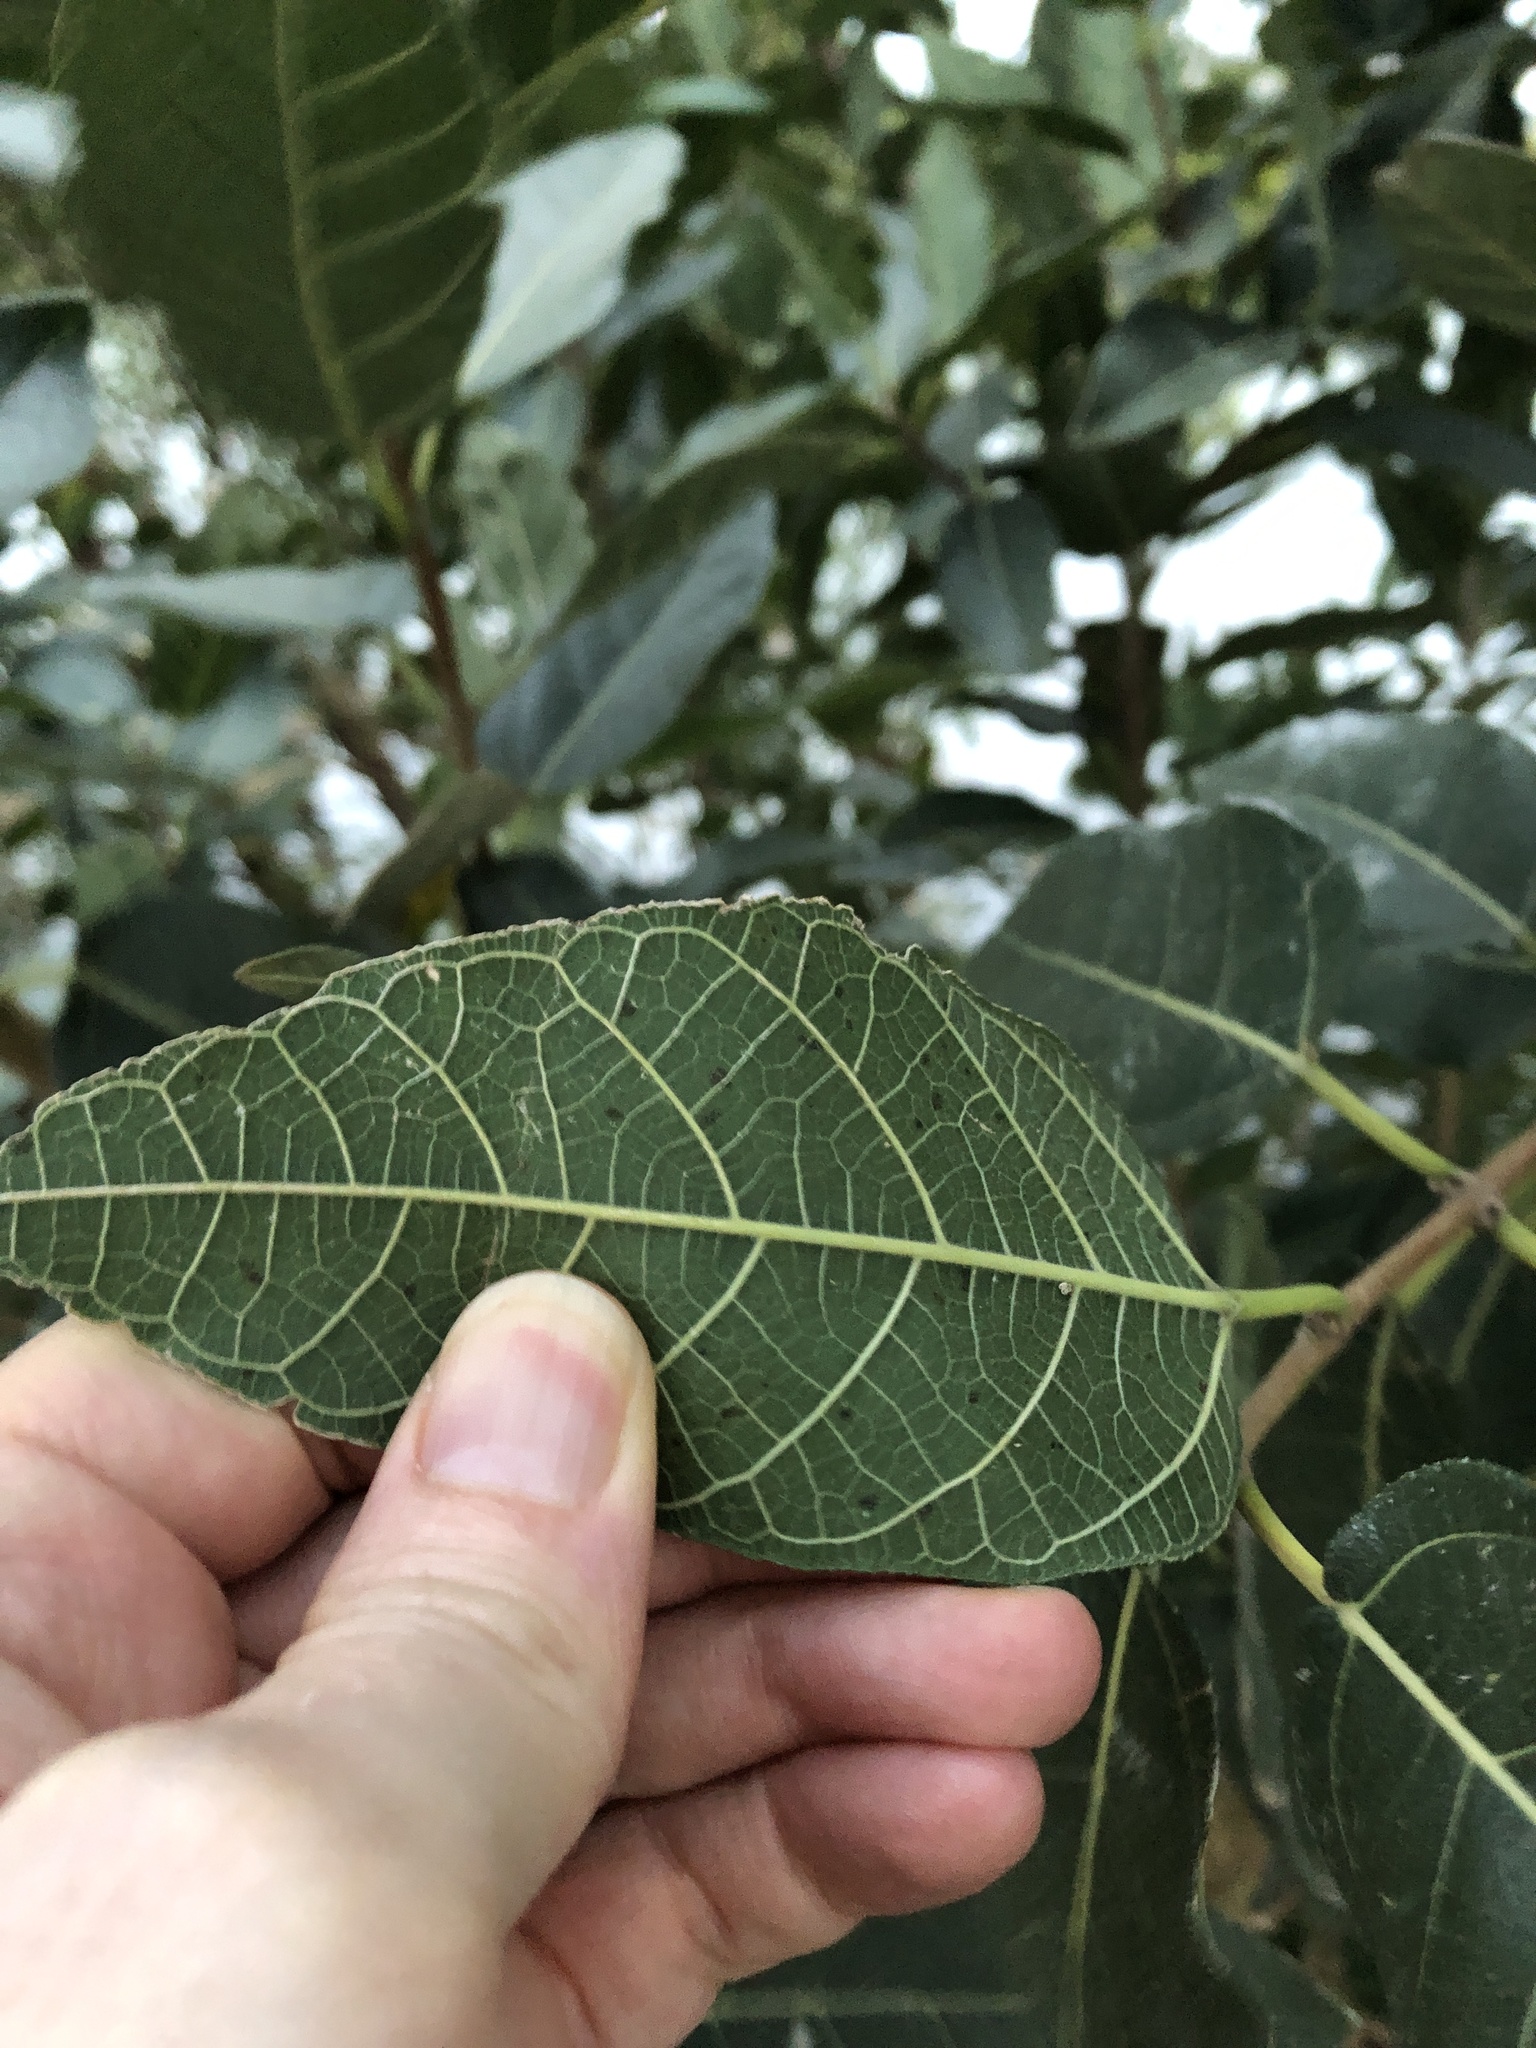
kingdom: Plantae
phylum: Tracheophyta
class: Magnoliopsida
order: Rosales
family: Moraceae
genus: Ficus
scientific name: Ficus opposita
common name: Figwood
